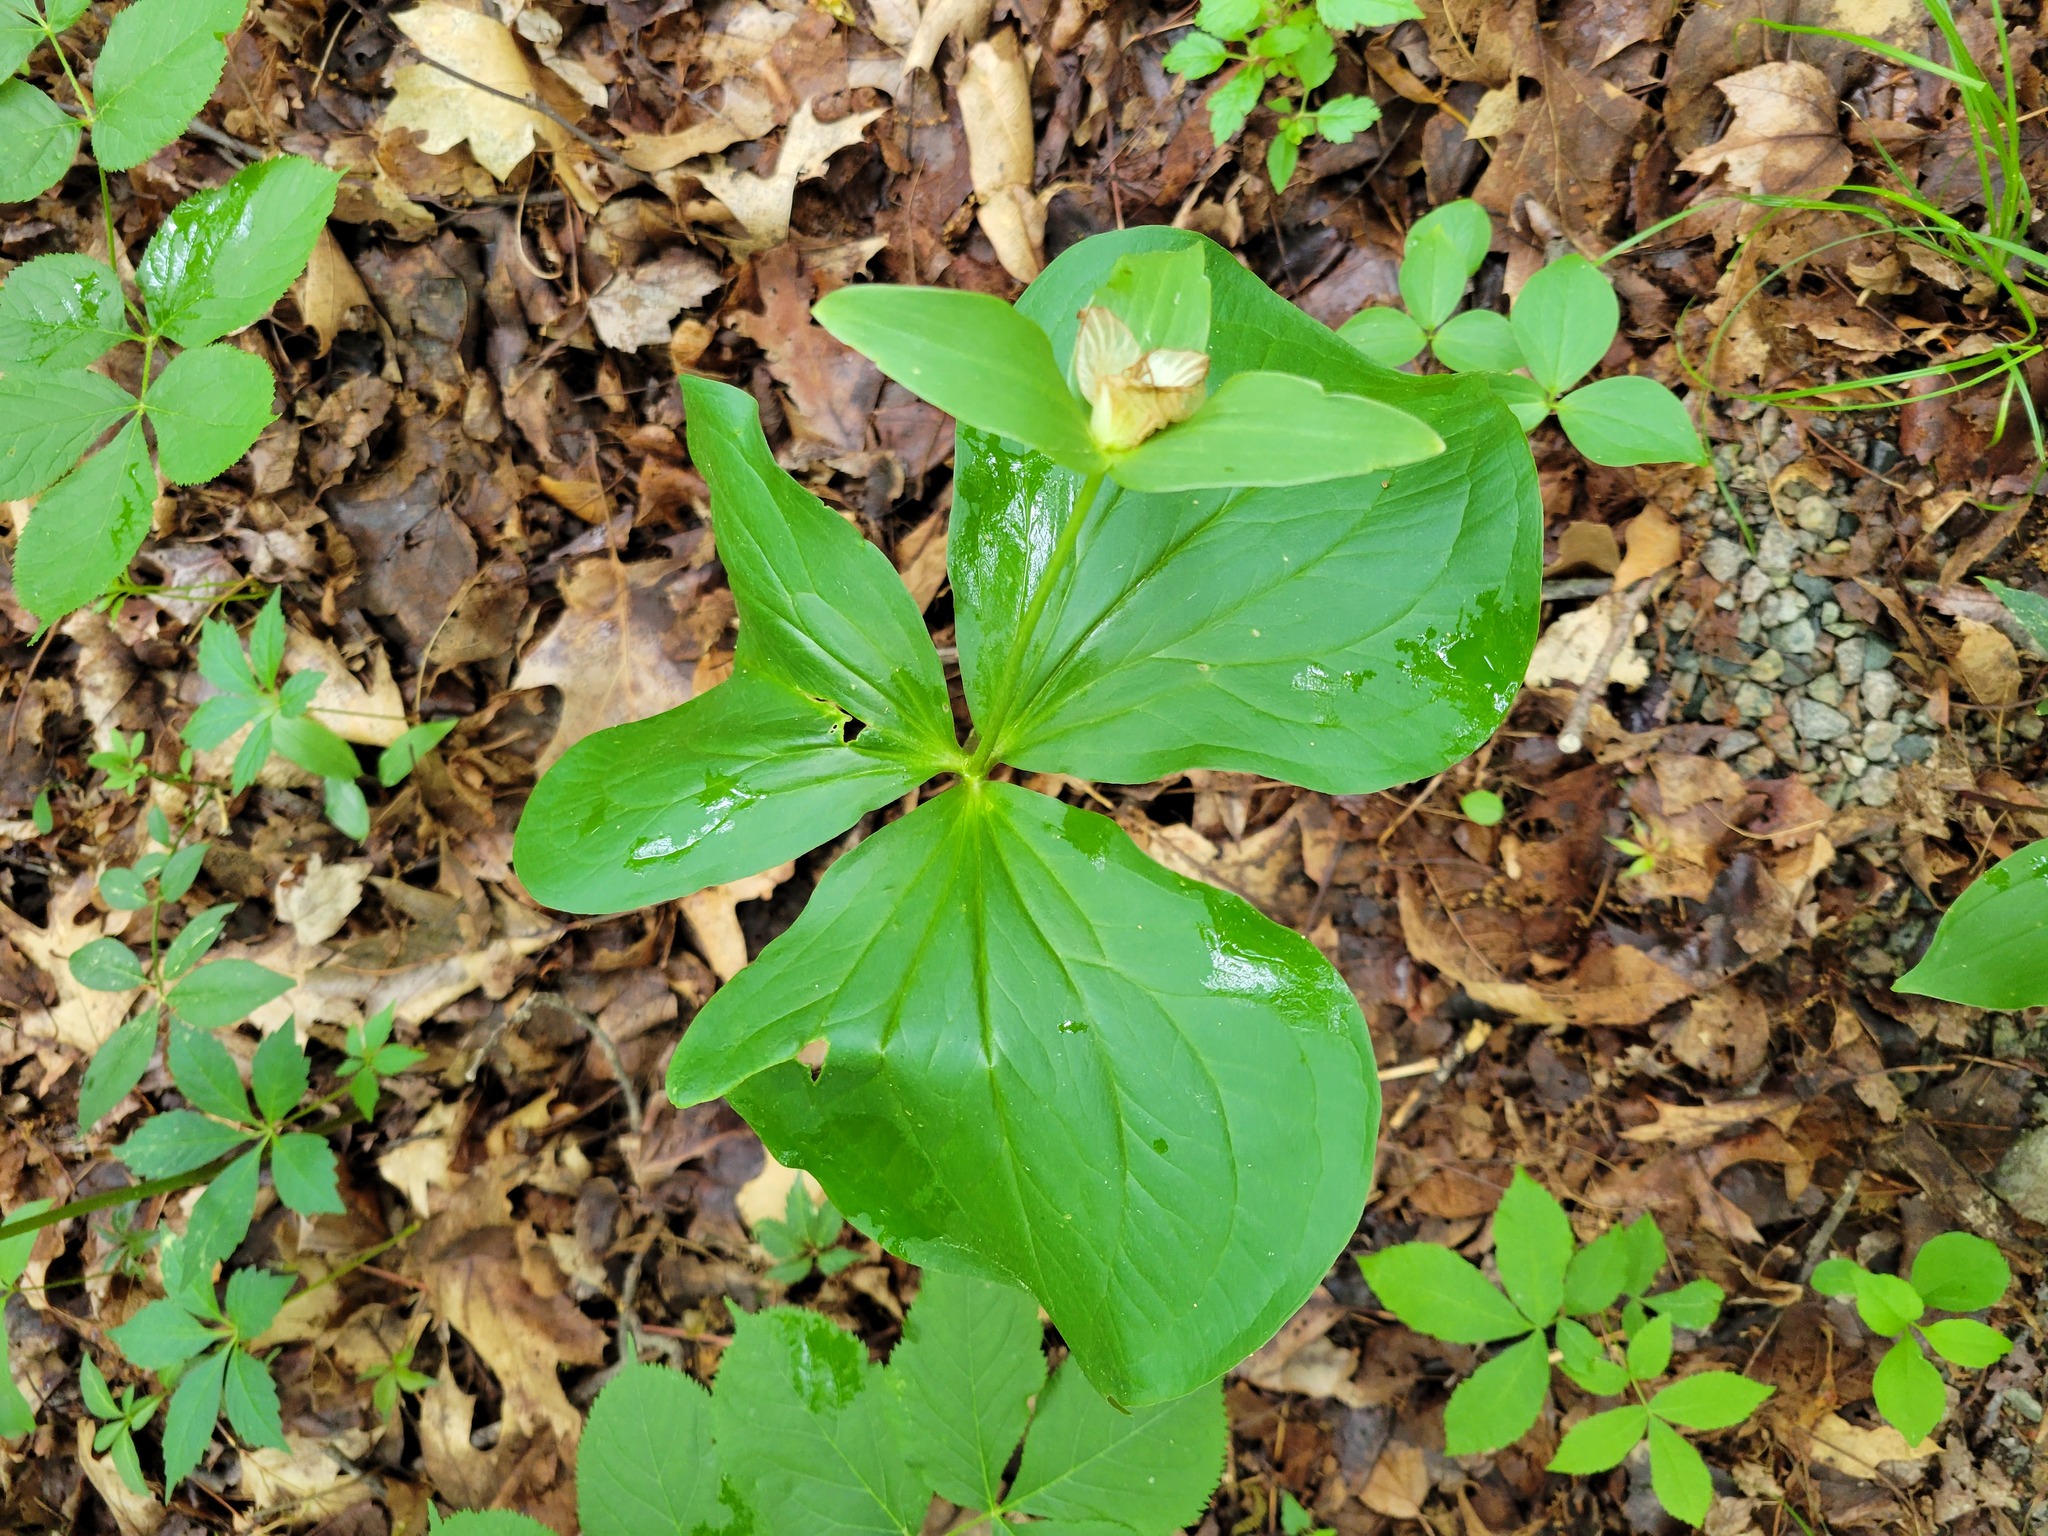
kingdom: Plantae
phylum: Tracheophyta
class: Liliopsida
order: Liliales
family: Melanthiaceae
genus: Trillium
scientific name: Trillium grandiflorum
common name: Great white trillium
